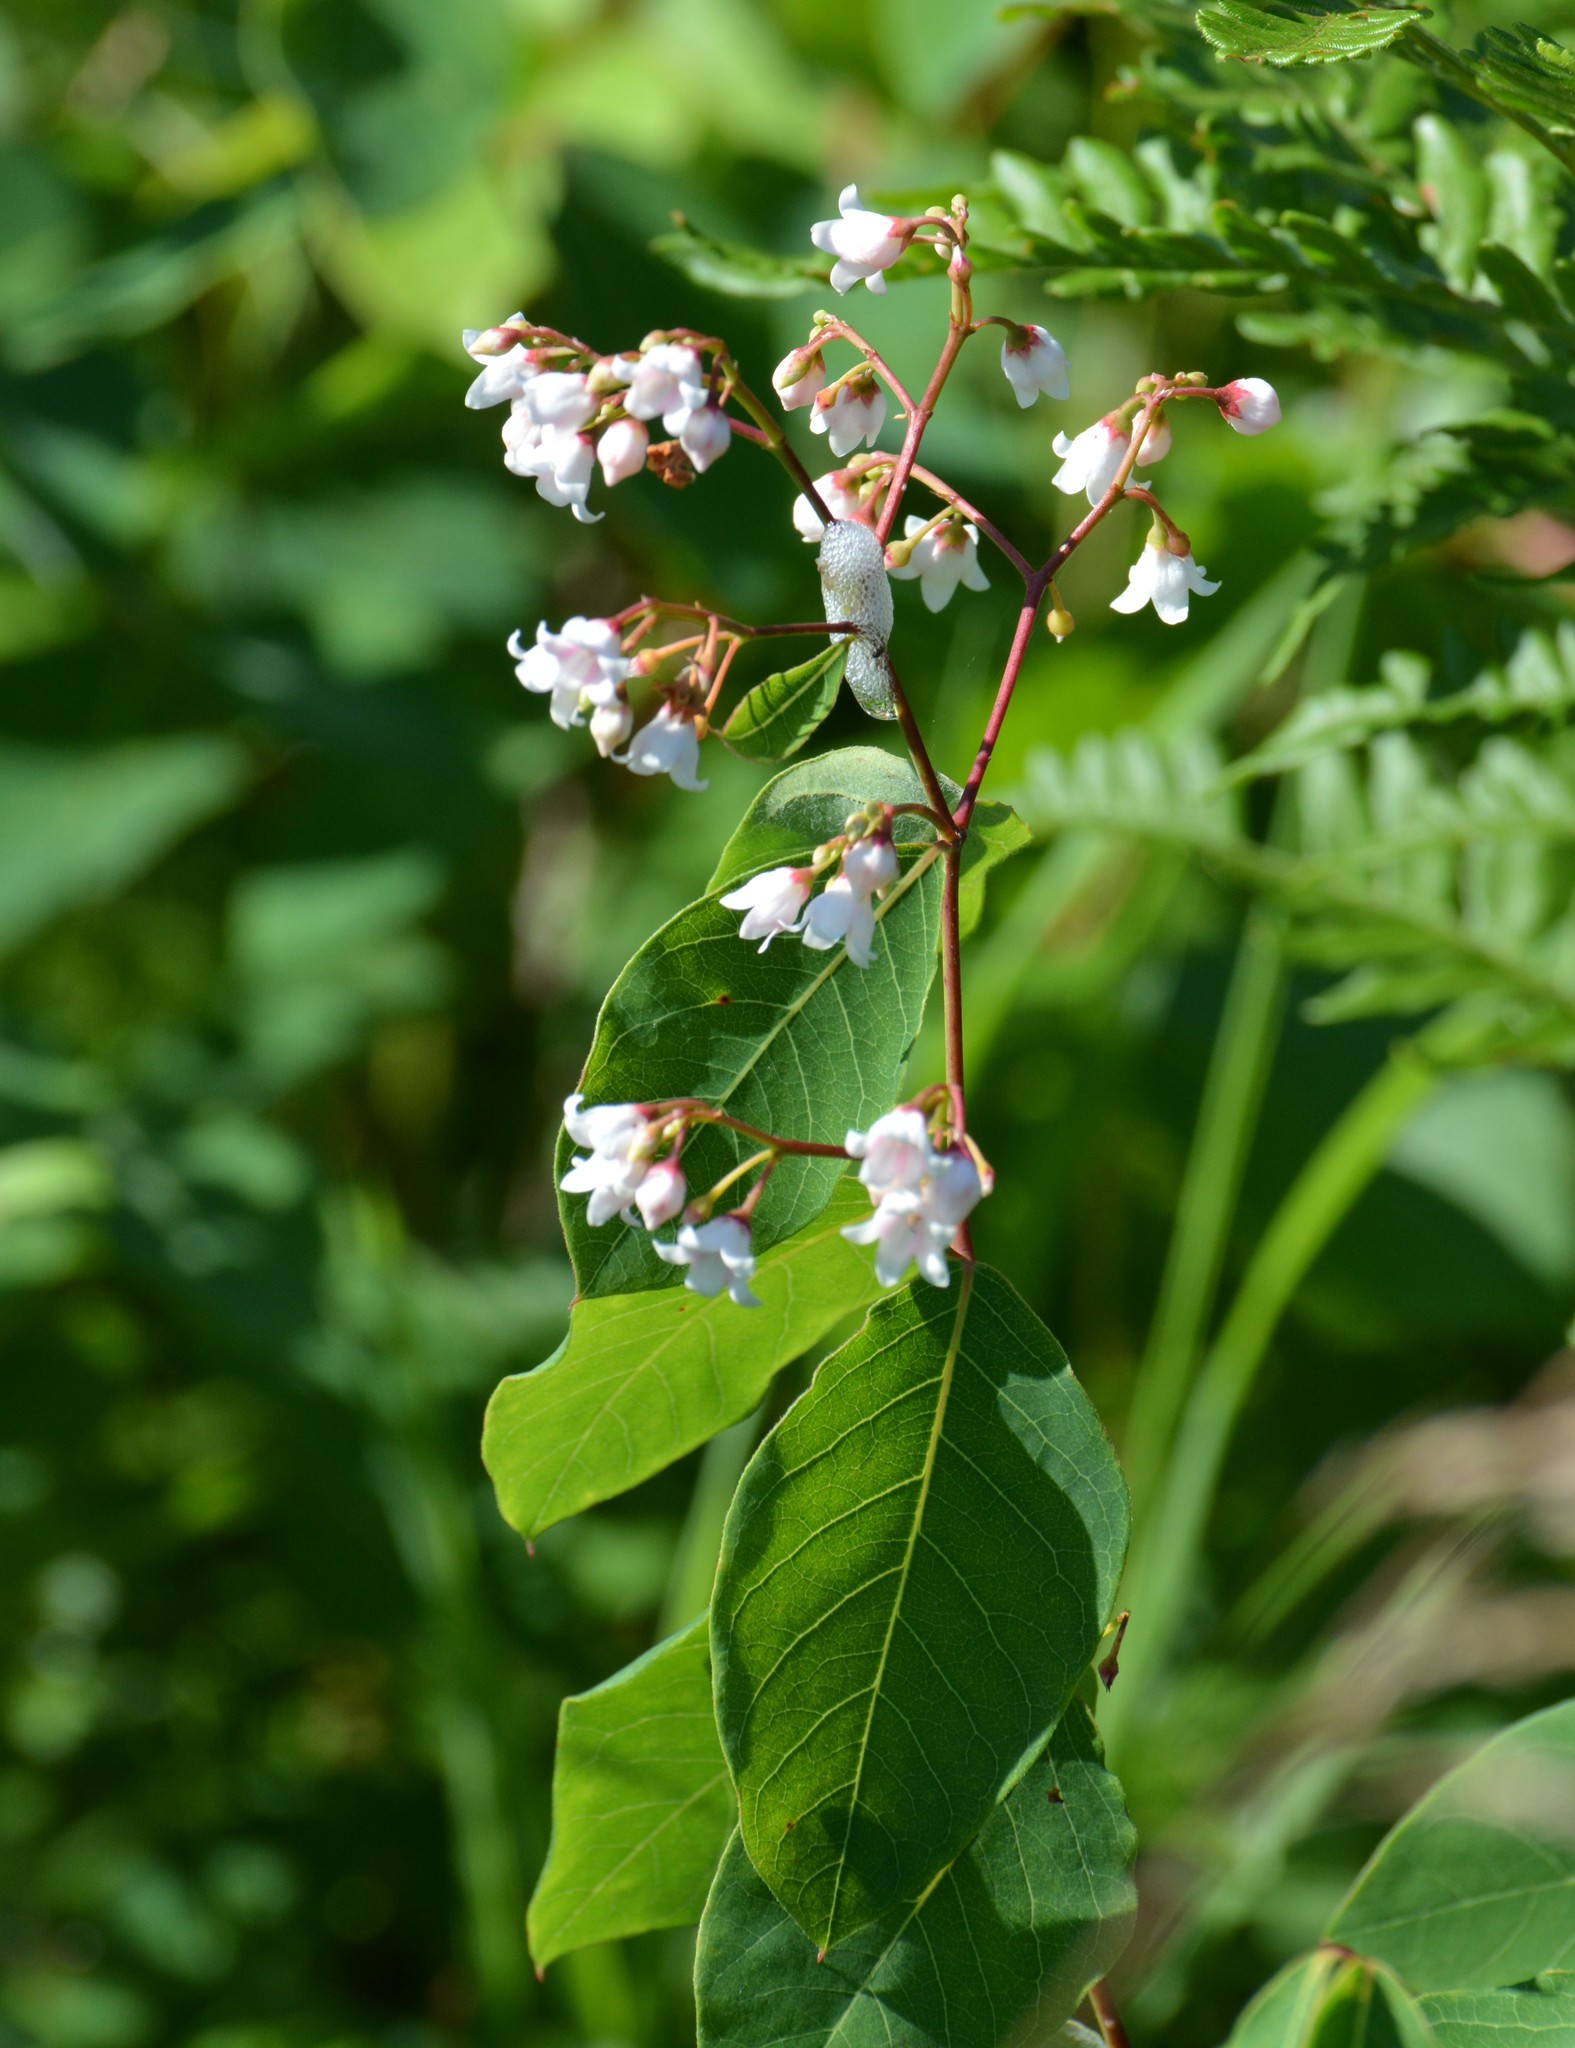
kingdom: Plantae
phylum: Tracheophyta
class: Magnoliopsida
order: Gentianales
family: Apocynaceae
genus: Apocynum
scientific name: Apocynum androsaemifolium
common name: Spreading dogbane
